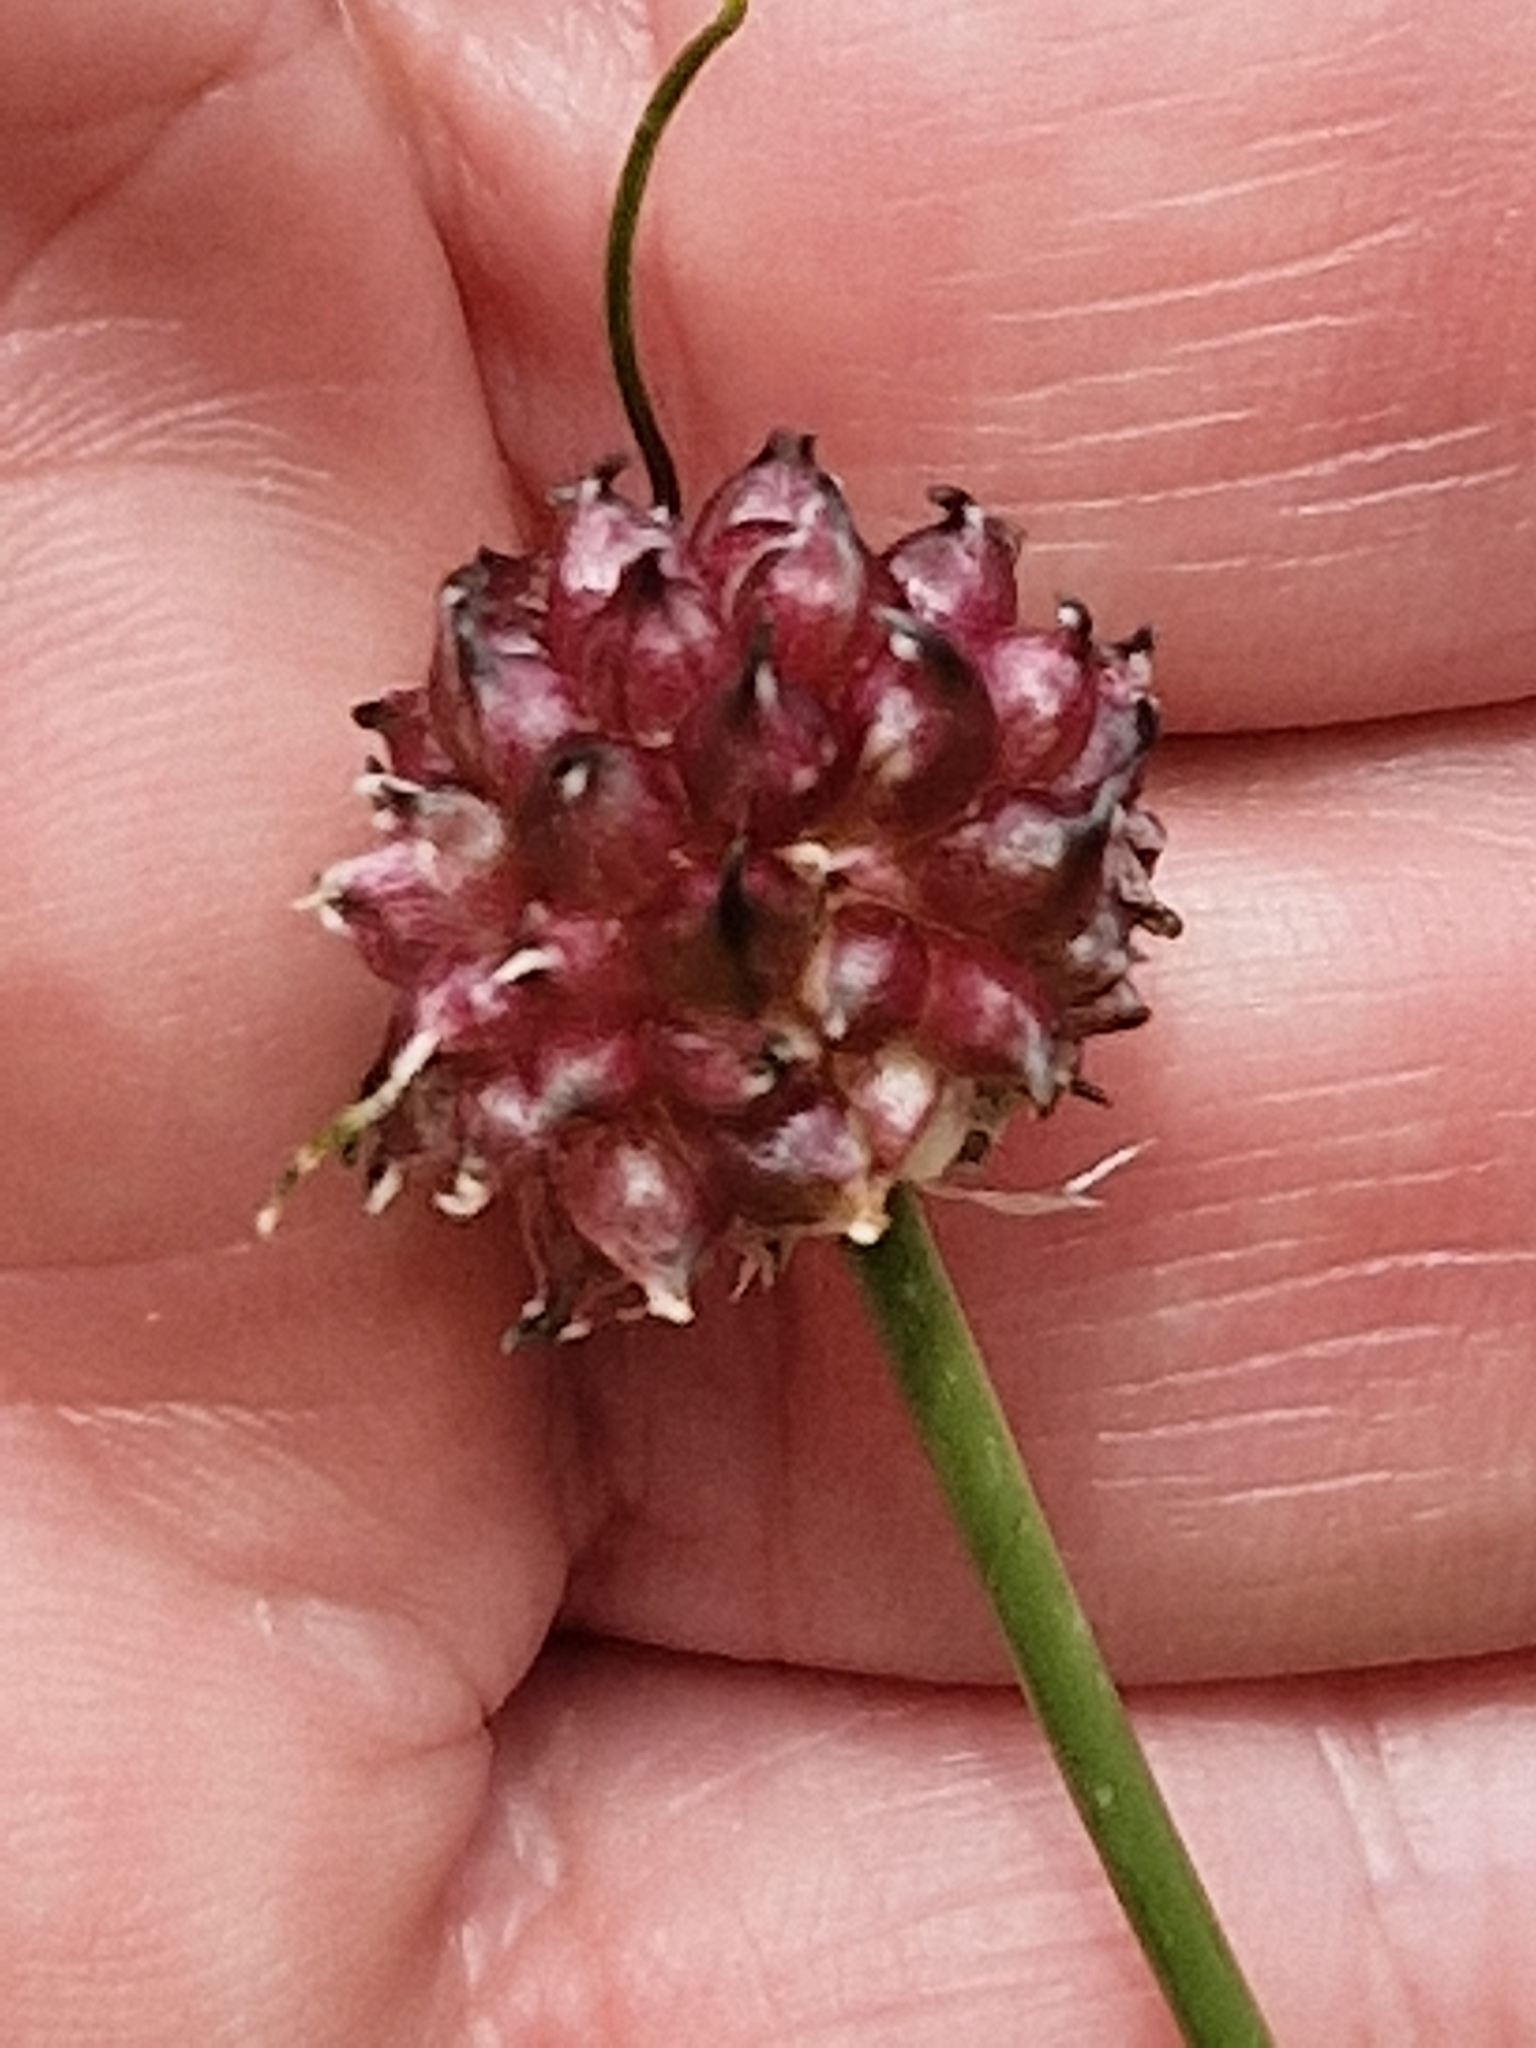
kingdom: Plantae
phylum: Tracheophyta
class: Liliopsida
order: Asparagales
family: Amaryllidaceae
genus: Allium
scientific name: Allium vineale
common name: Crow garlic
